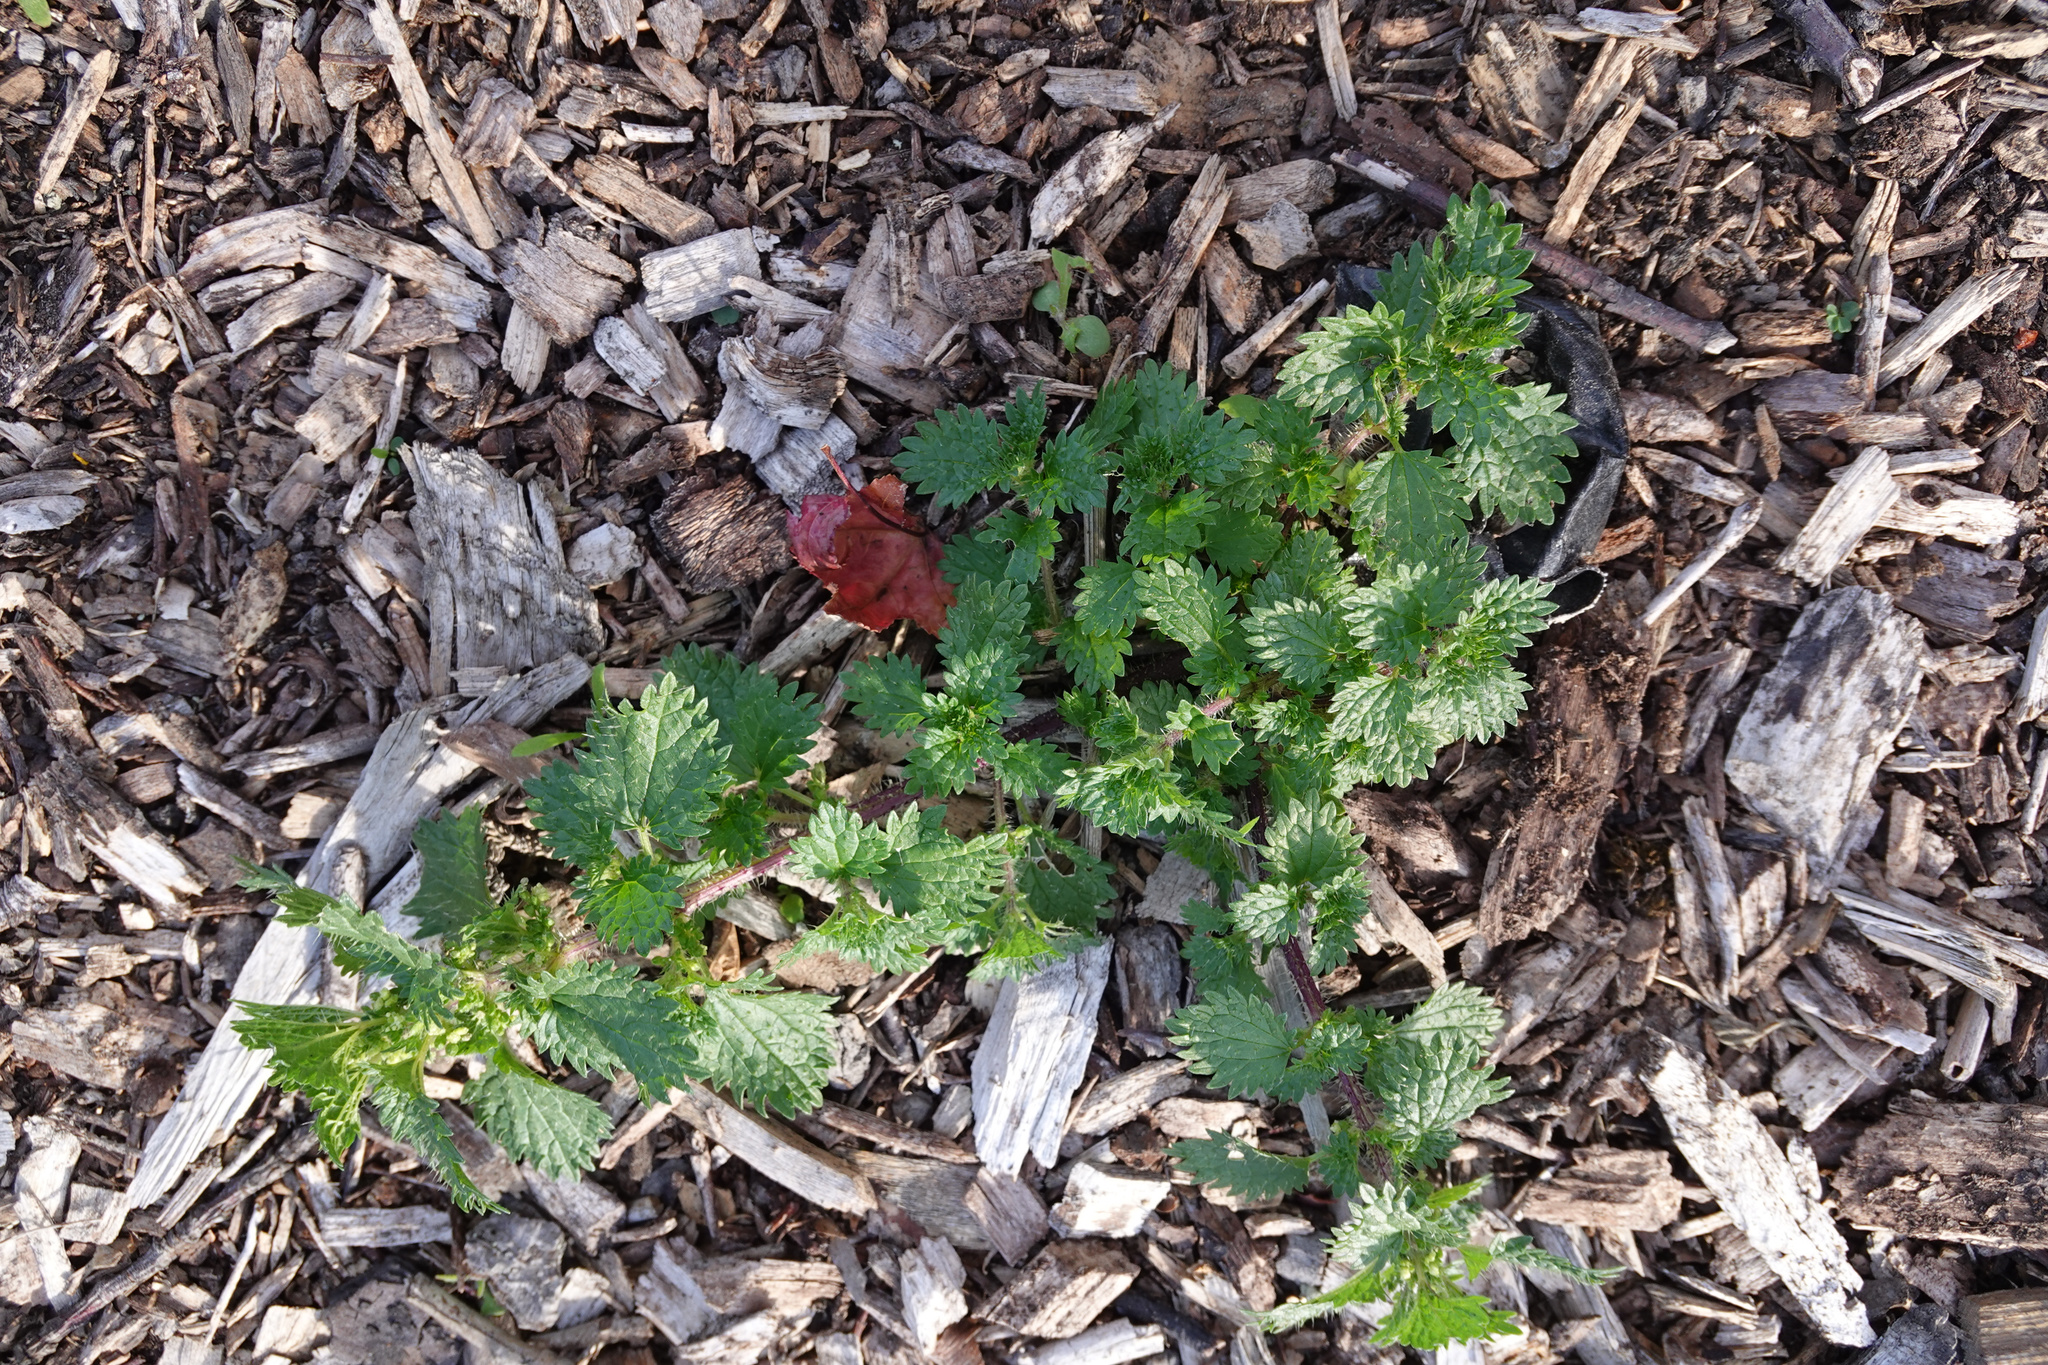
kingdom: Plantae
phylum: Tracheophyta
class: Magnoliopsida
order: Rosales
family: Urticaceae
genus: Urtica
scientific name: Urtica urens
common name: Dwarf nettle
